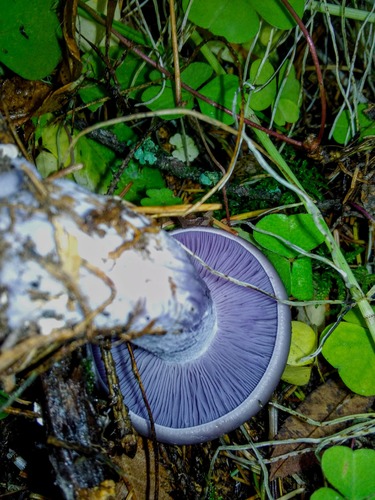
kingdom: Fungi
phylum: Basidiomycota
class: Agaricomycetes
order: Agaricales
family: Tricholomataceae
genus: Lepista
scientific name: Lepista nuda
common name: Wood blewit
